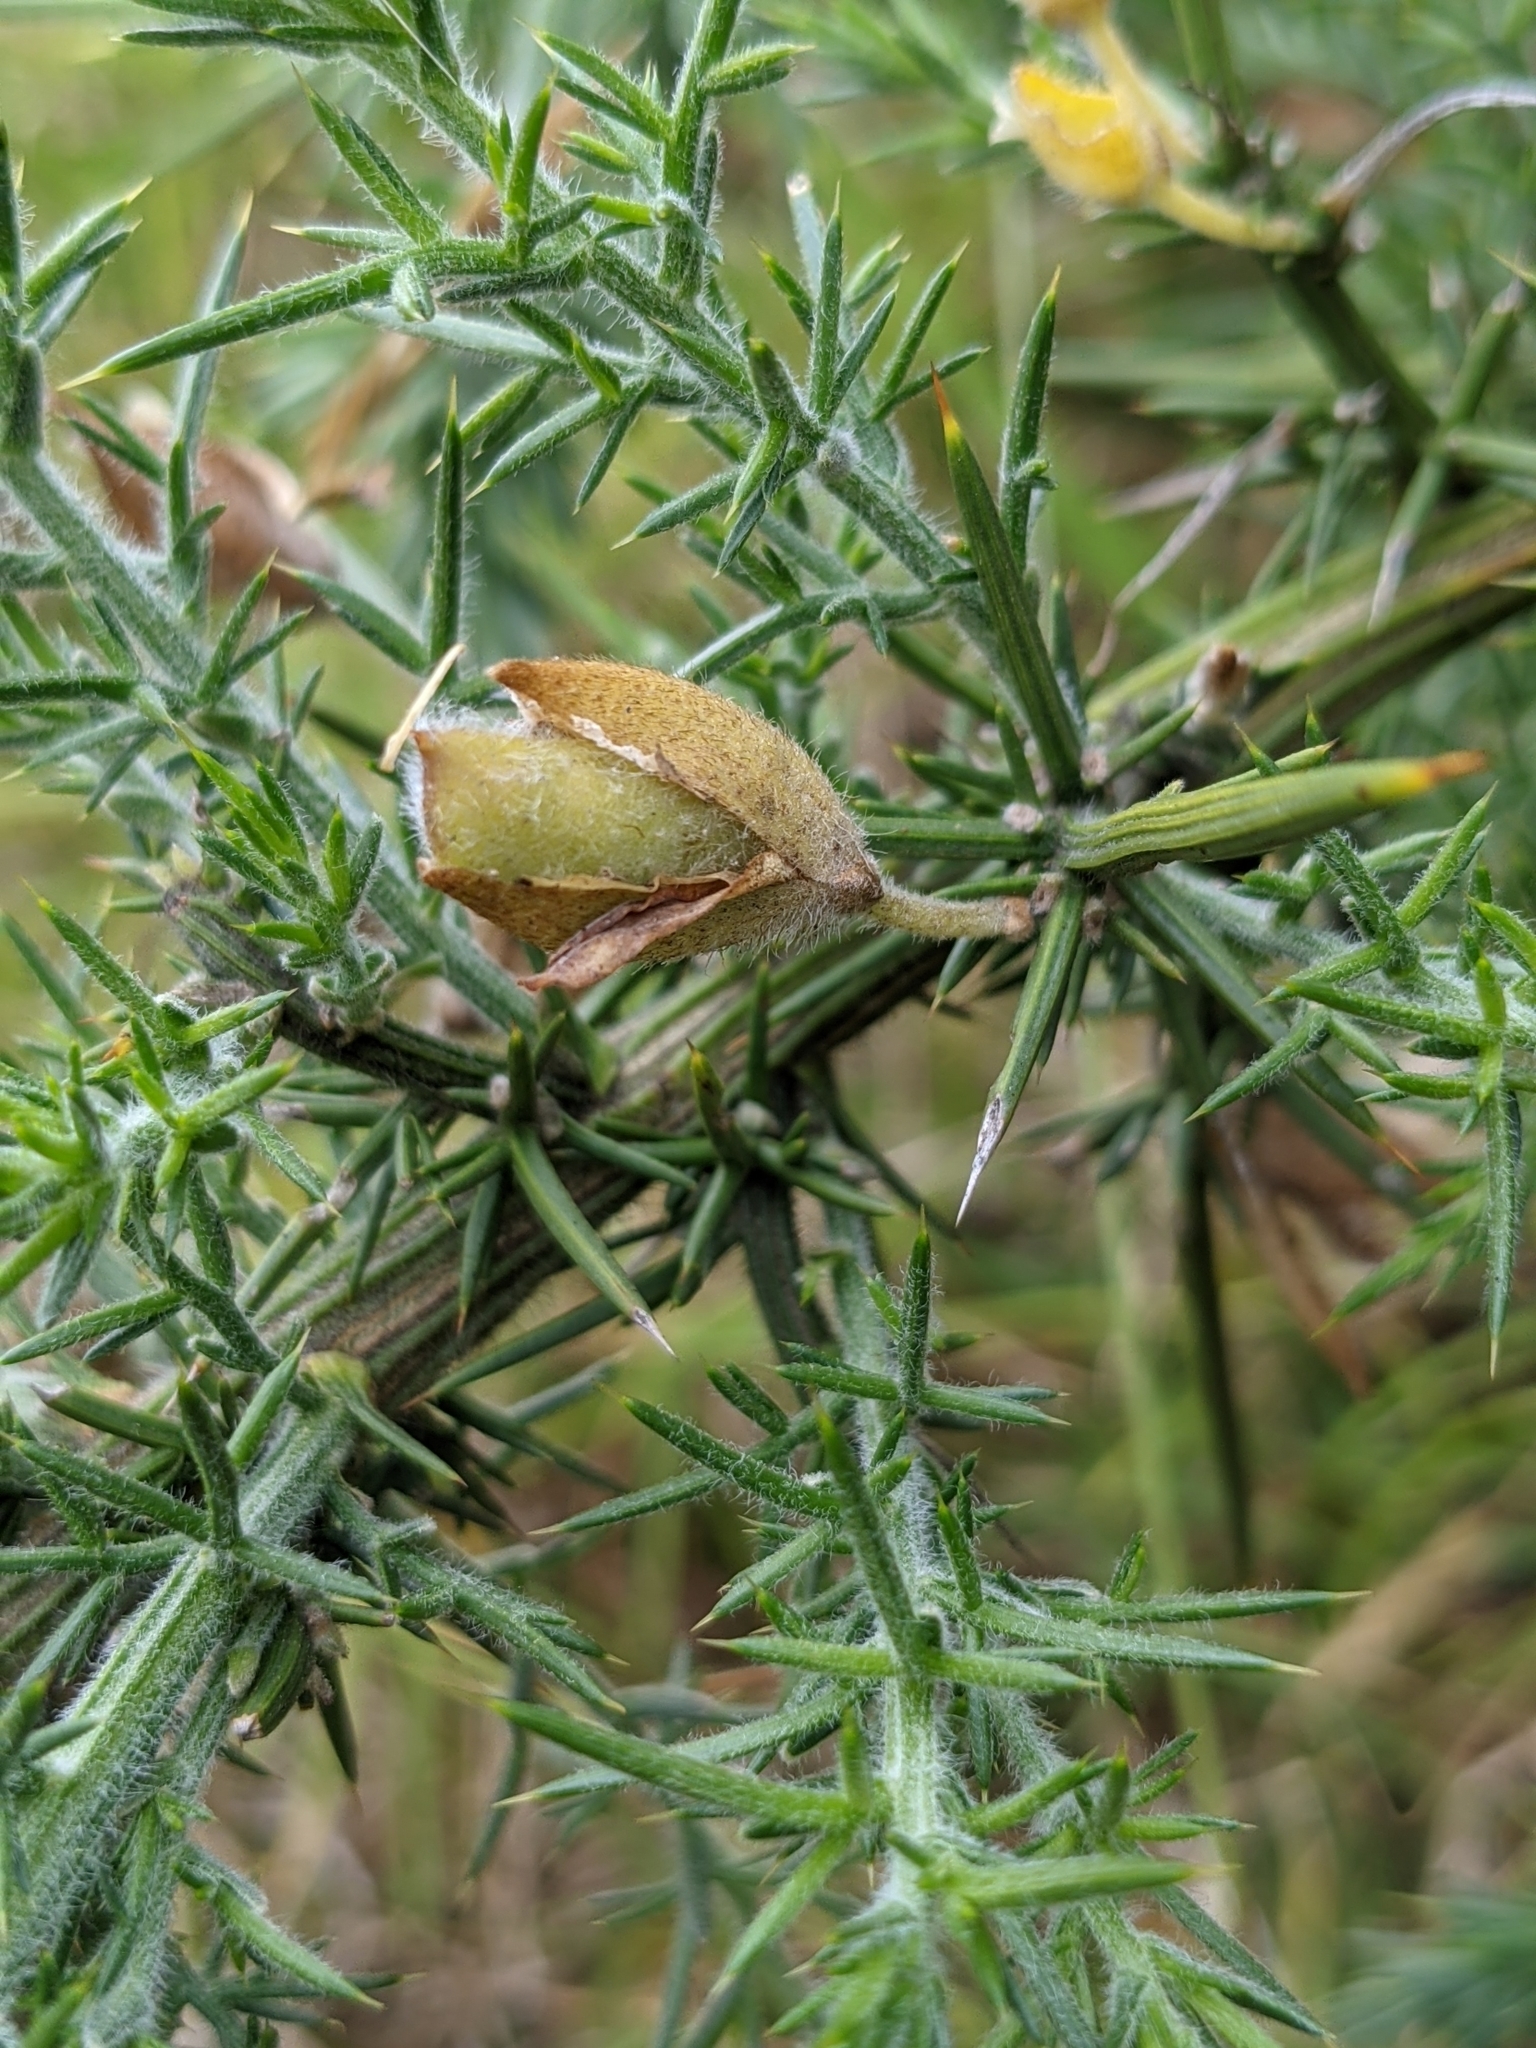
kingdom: Plantae
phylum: Tracheophyta
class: Magnoliopsida
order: Fabales
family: Fabaceae
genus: Ulex
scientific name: Ulex europaeus
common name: Common gorse
